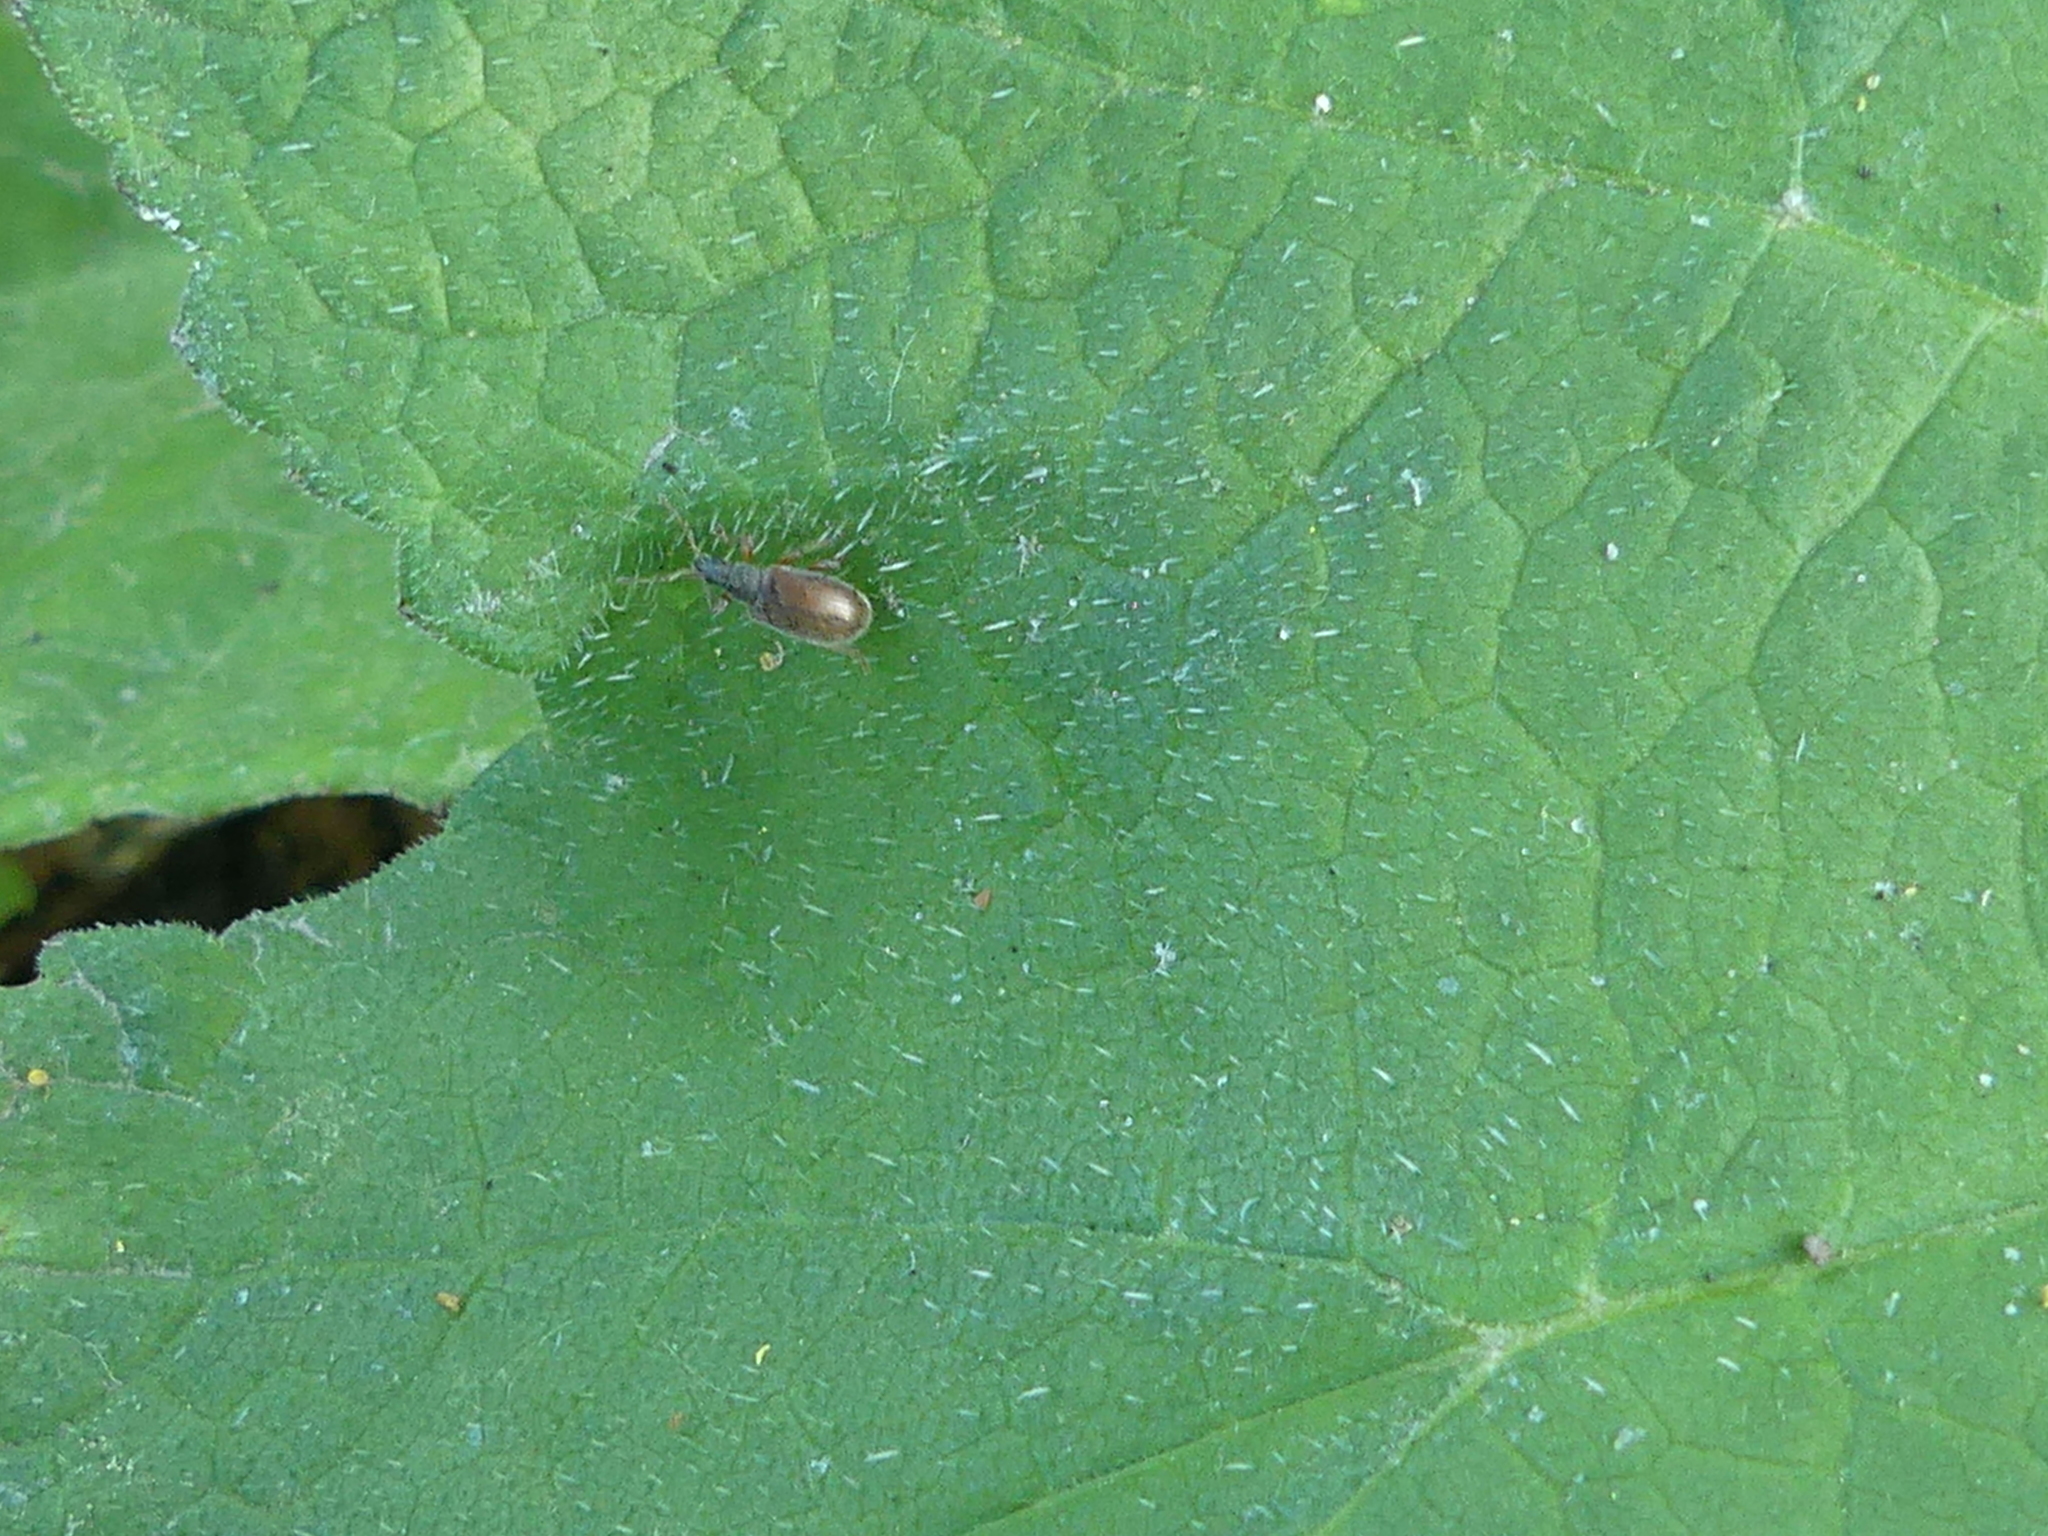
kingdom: Animalia
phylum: Arthropoda
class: Insecta
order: Coleoptera
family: Curculionidae
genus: Phyllobius
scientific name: Phyllobius oblongus
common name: Brown leaf weevil
